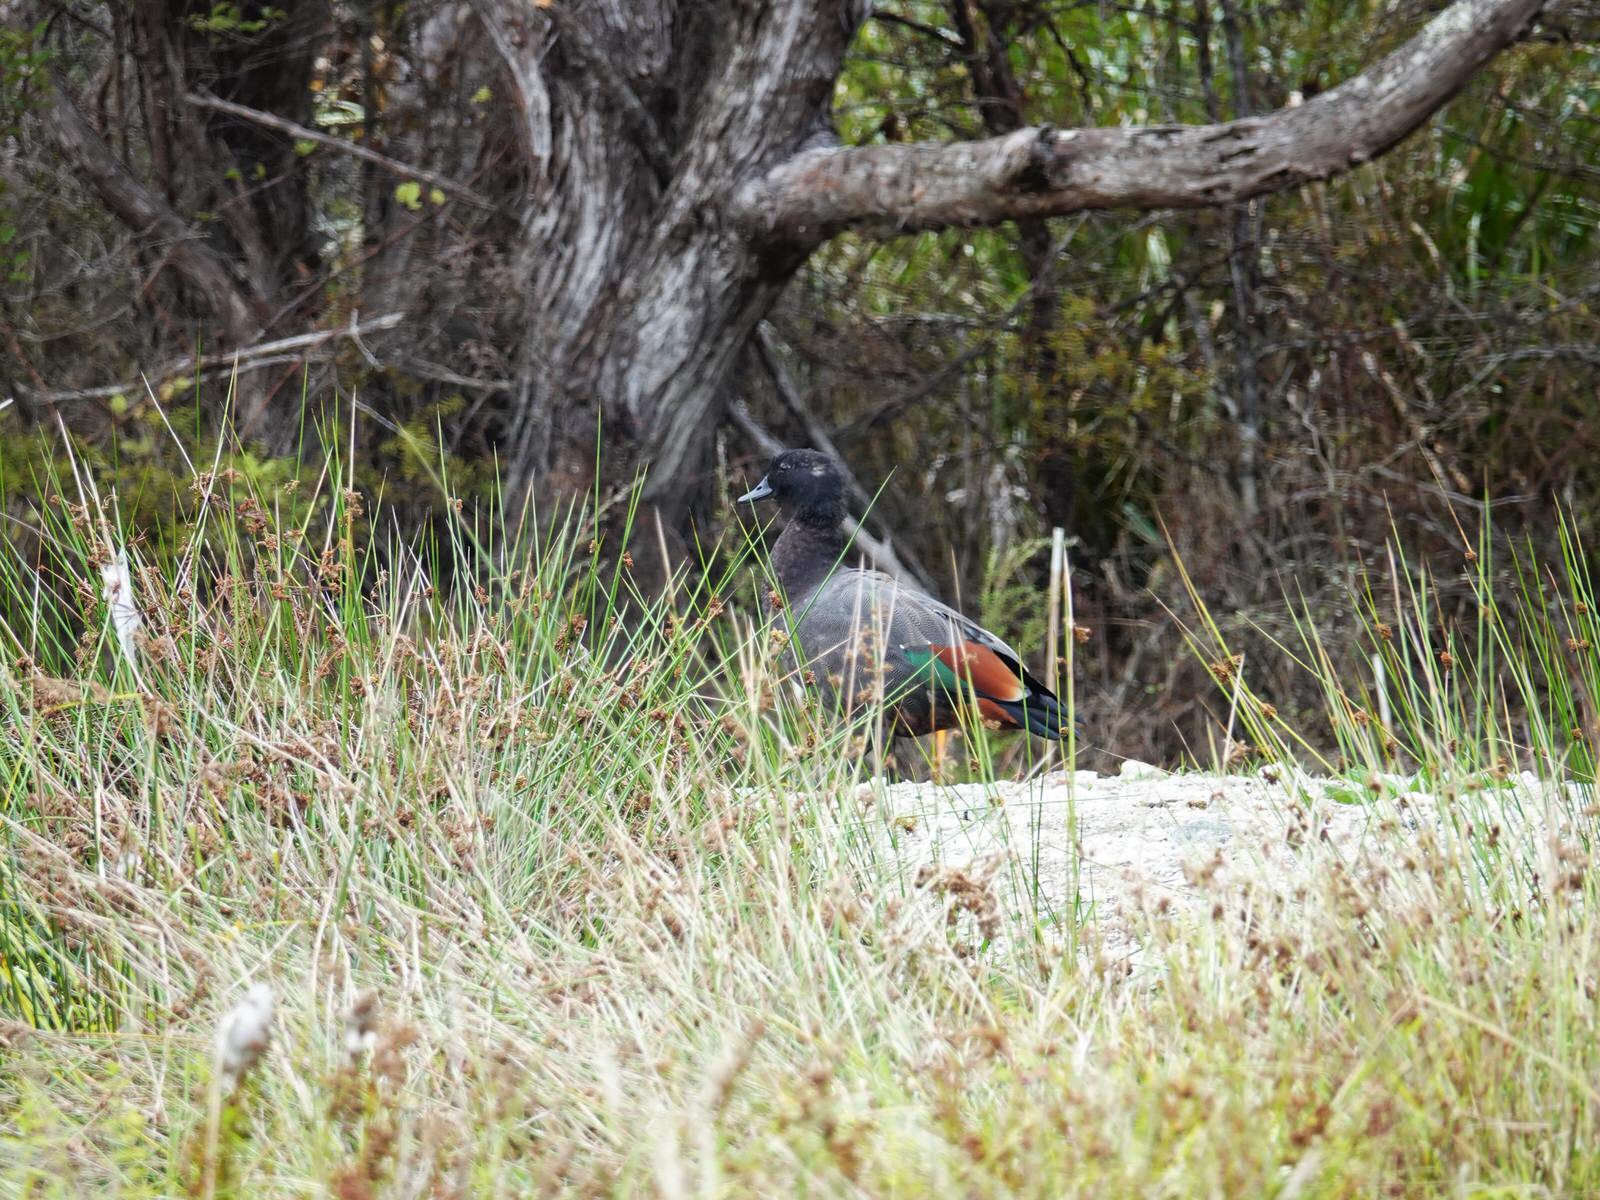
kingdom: Animalia
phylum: Chordata
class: Aves
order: Anseriformes
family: Anatidae
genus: Tadorna
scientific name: Tadorna variegata
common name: Paradise shelduck
